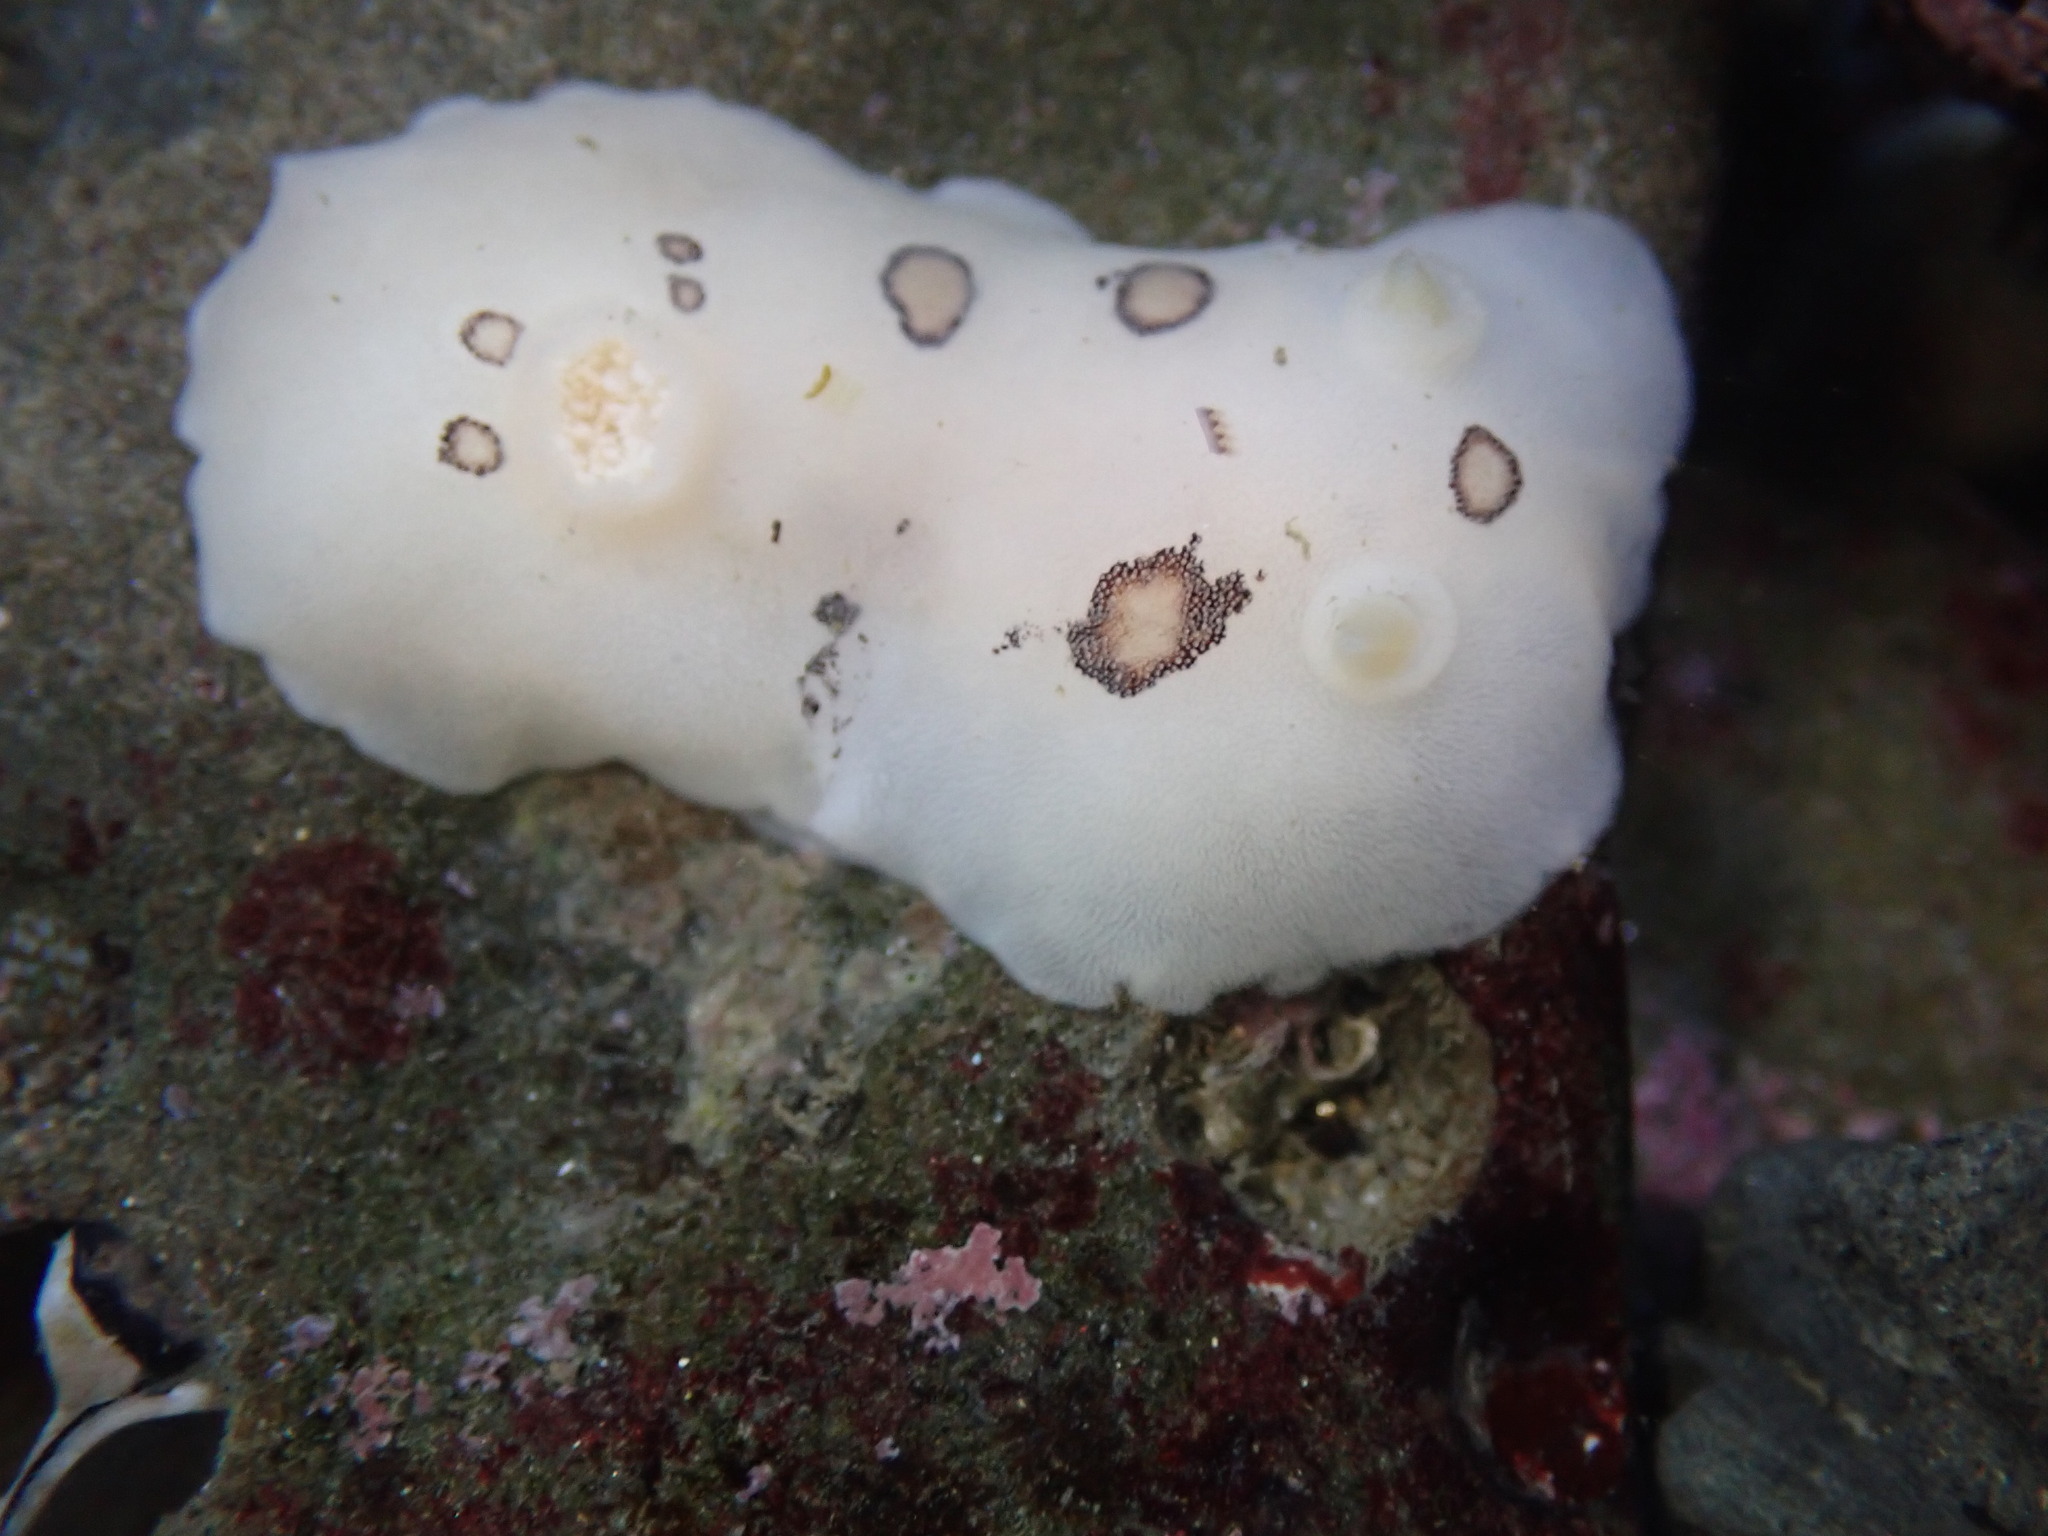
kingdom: Animalia
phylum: Mollusca
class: Gastropoda
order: Nudibranchia
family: Discodorididae
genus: Diaulula
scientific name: Diaulula sandiegensis
